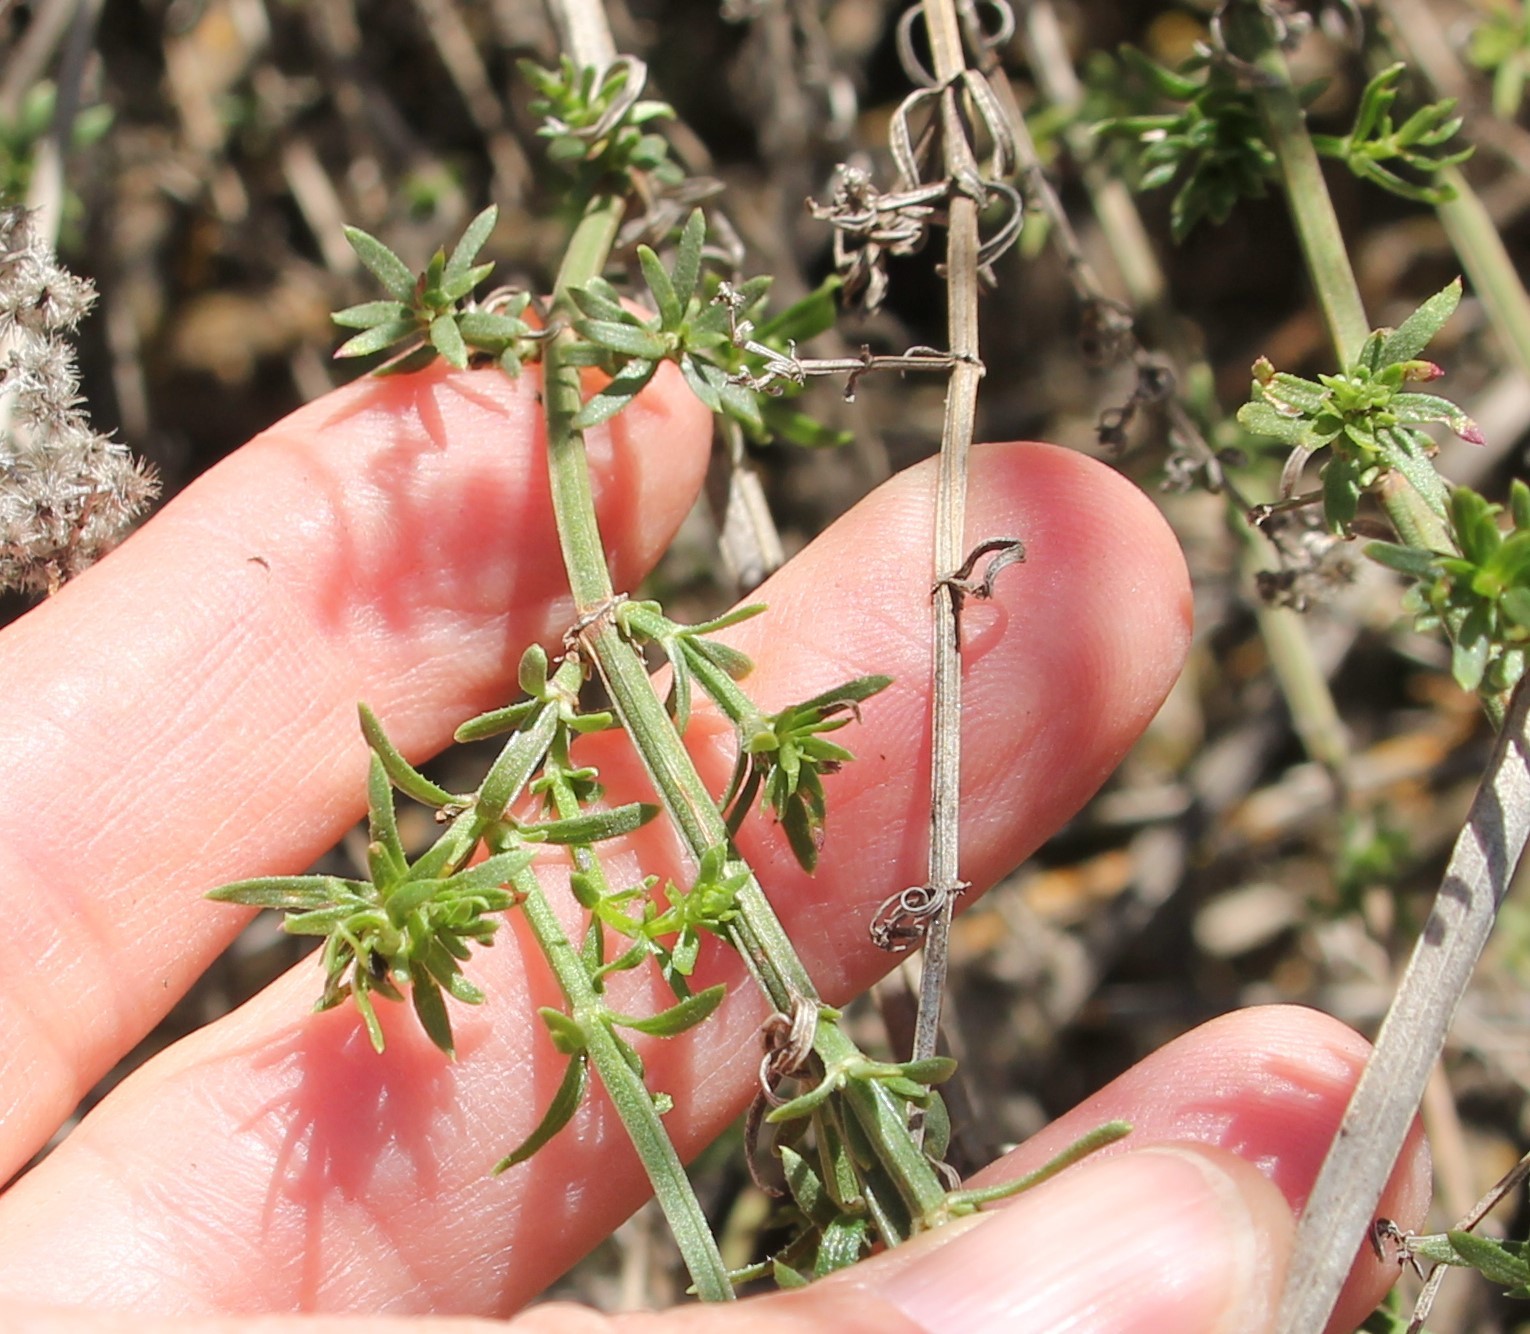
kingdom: Plantae
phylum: Tracheophyta
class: Magnoliopsida
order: Gentianales
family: Rubiaceae
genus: Galium
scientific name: Galium angustifolium
